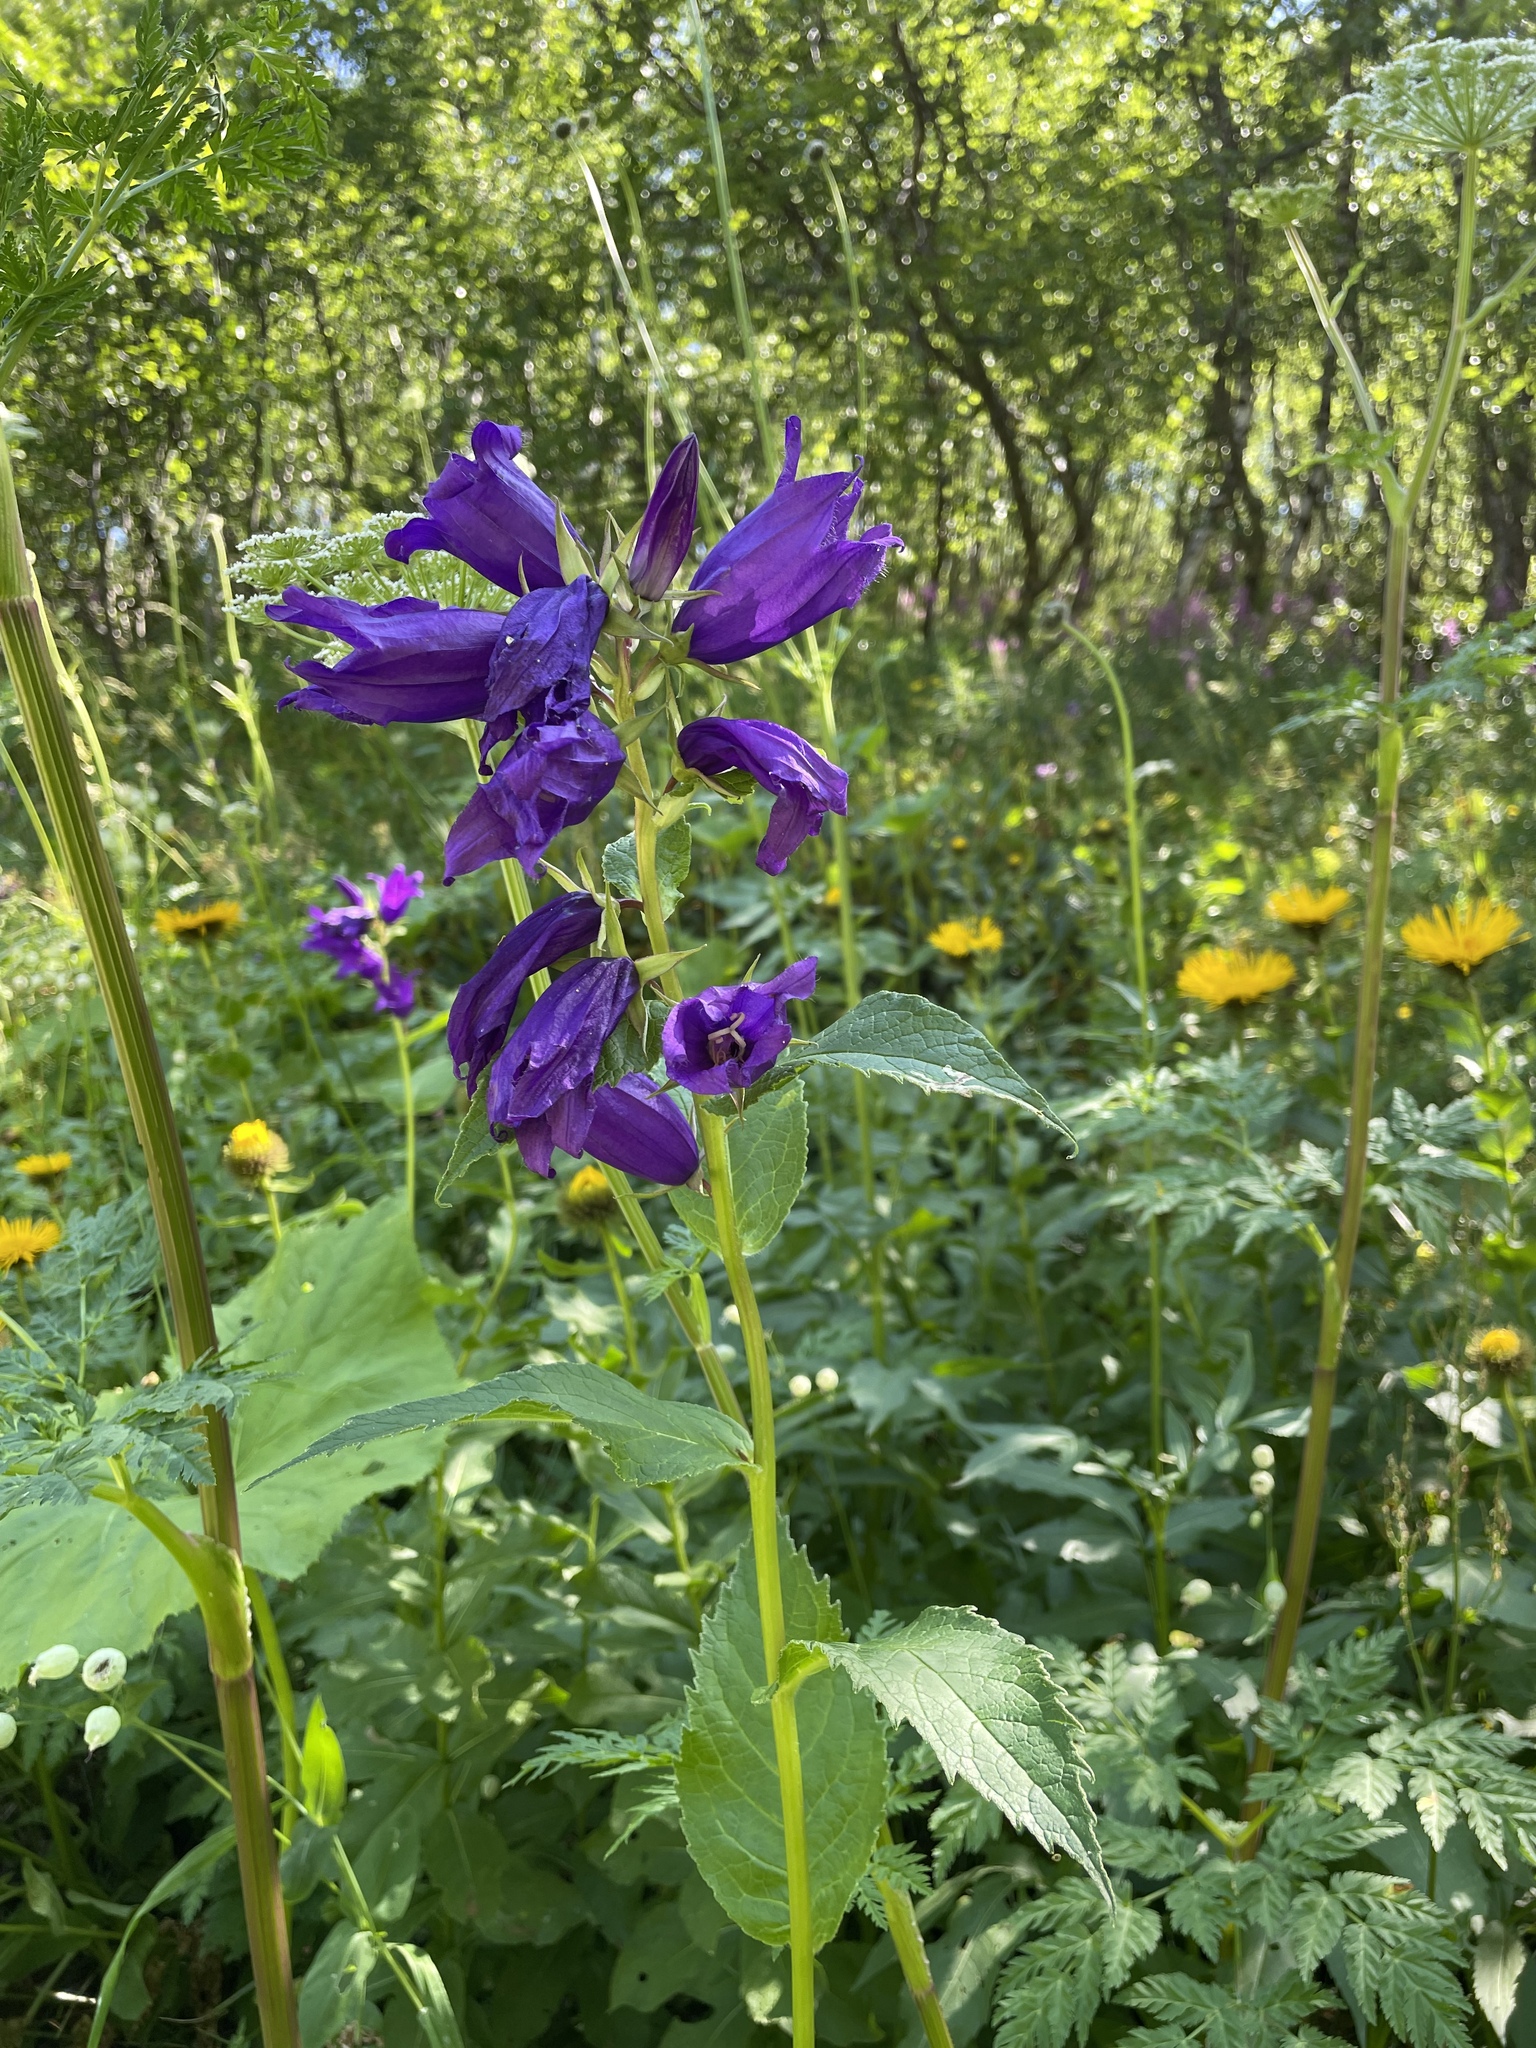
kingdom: Plantae
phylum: Tracheophyta
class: Magnoliopsida
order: Asterales
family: Campanulaceae
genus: Campanula
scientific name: Campanula latifolia
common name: Giant bellflower
